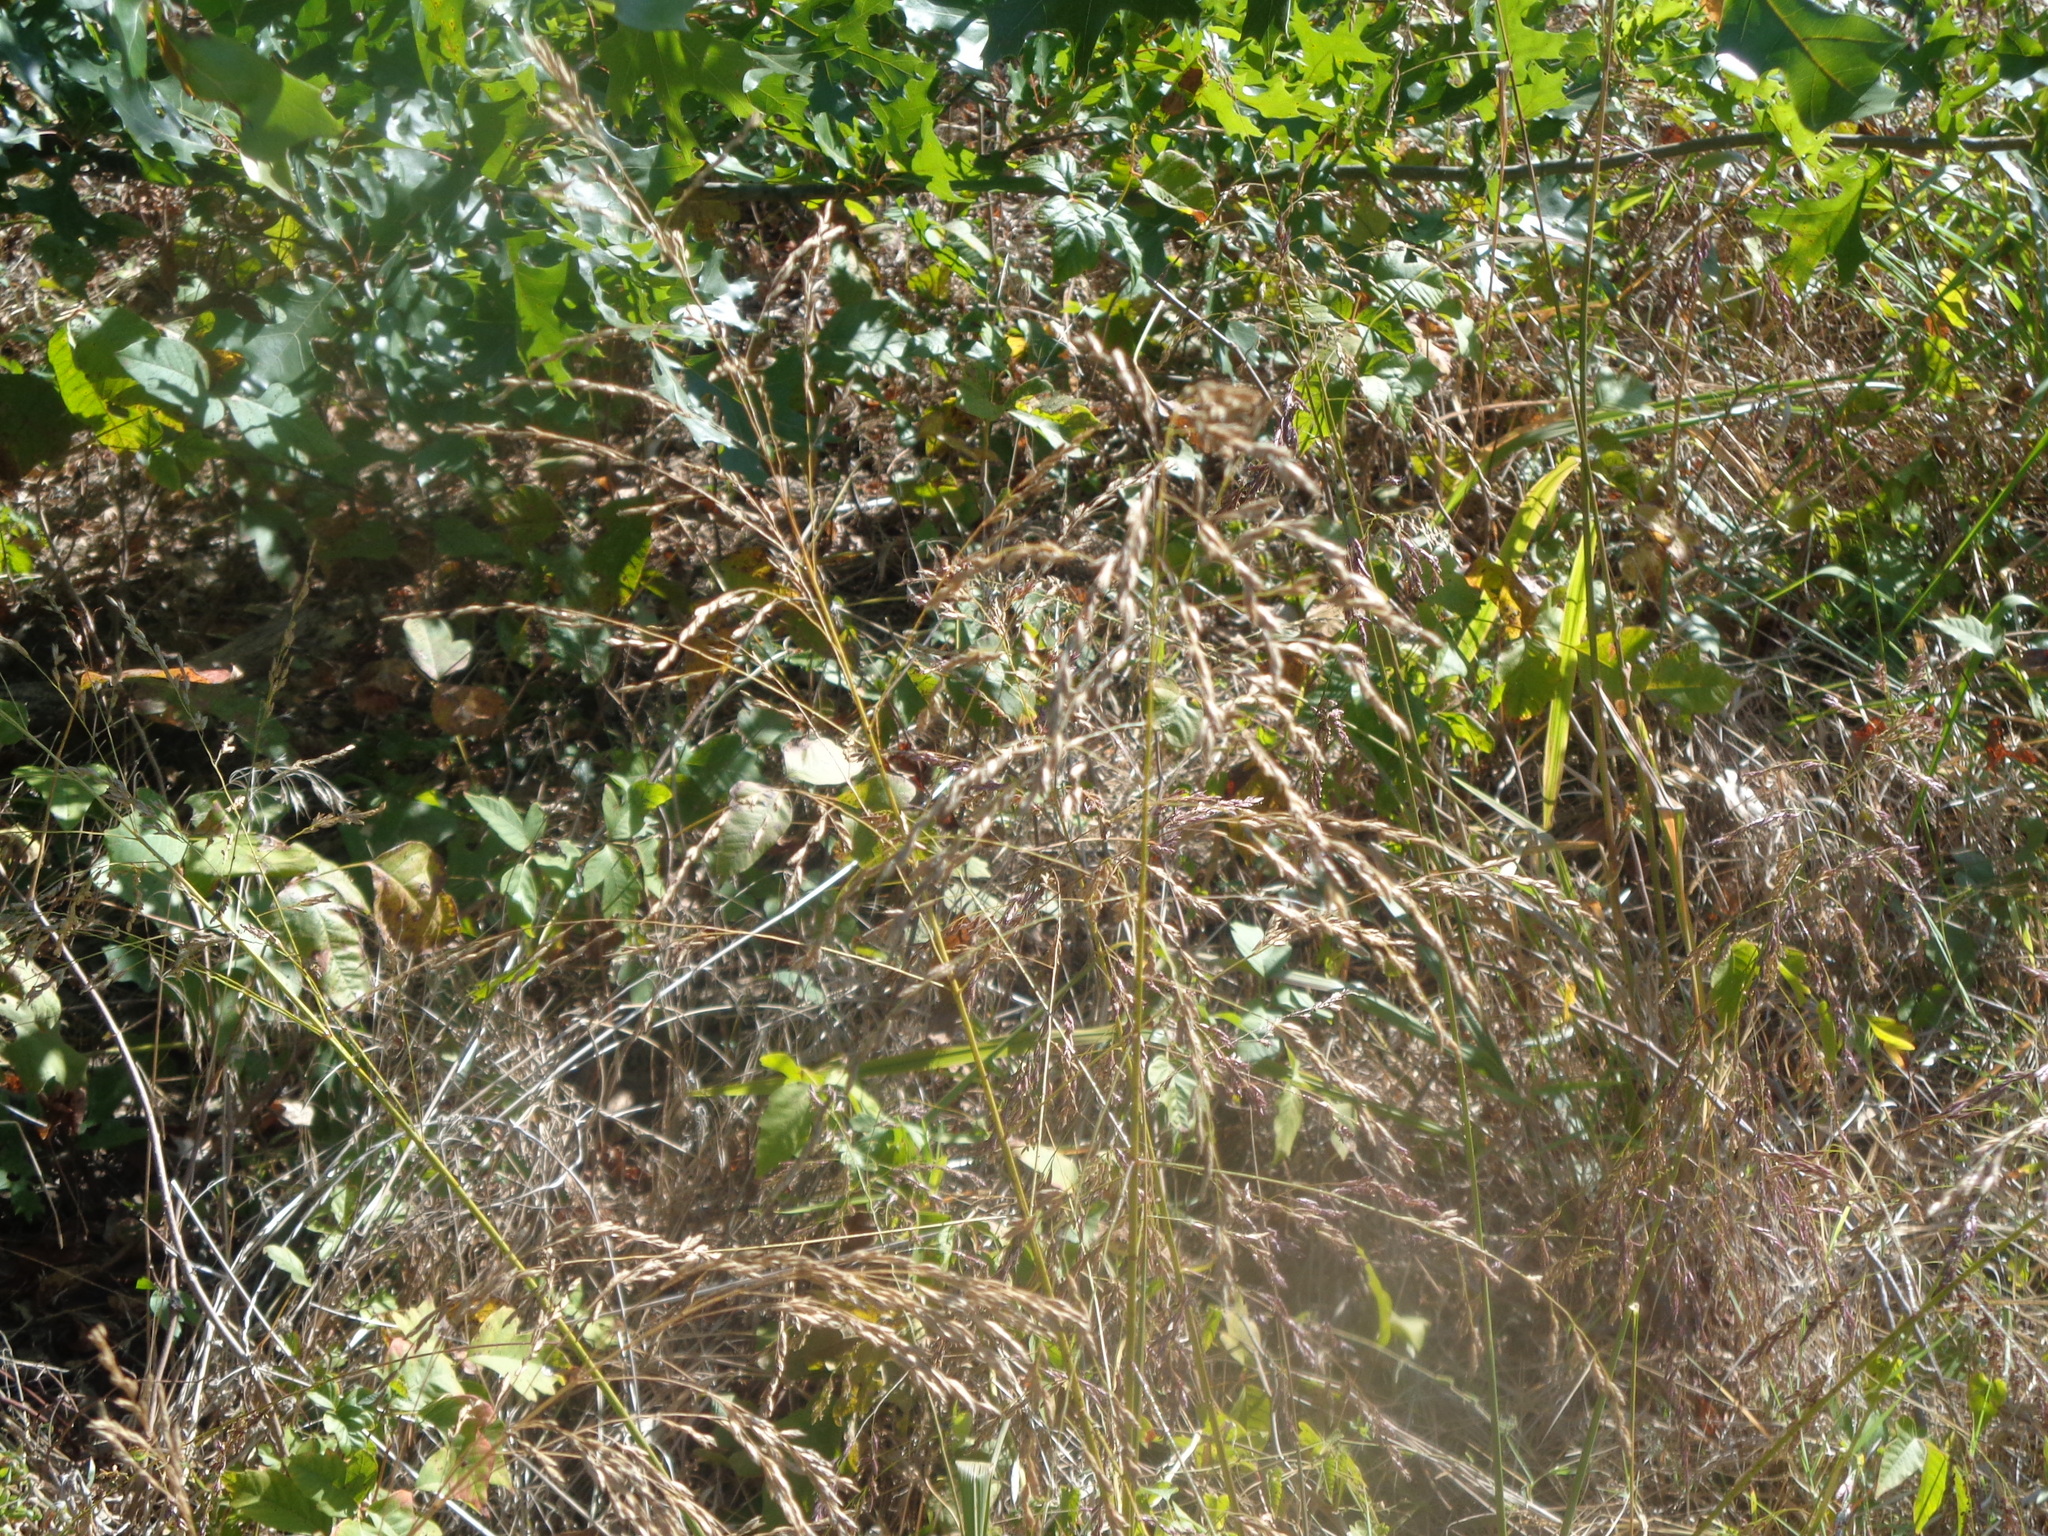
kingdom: Plantae
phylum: Tracheophyta
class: Liliopsida
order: Poales
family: Poaceae
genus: Tridens
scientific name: Tridens flavus
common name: Purpletop
